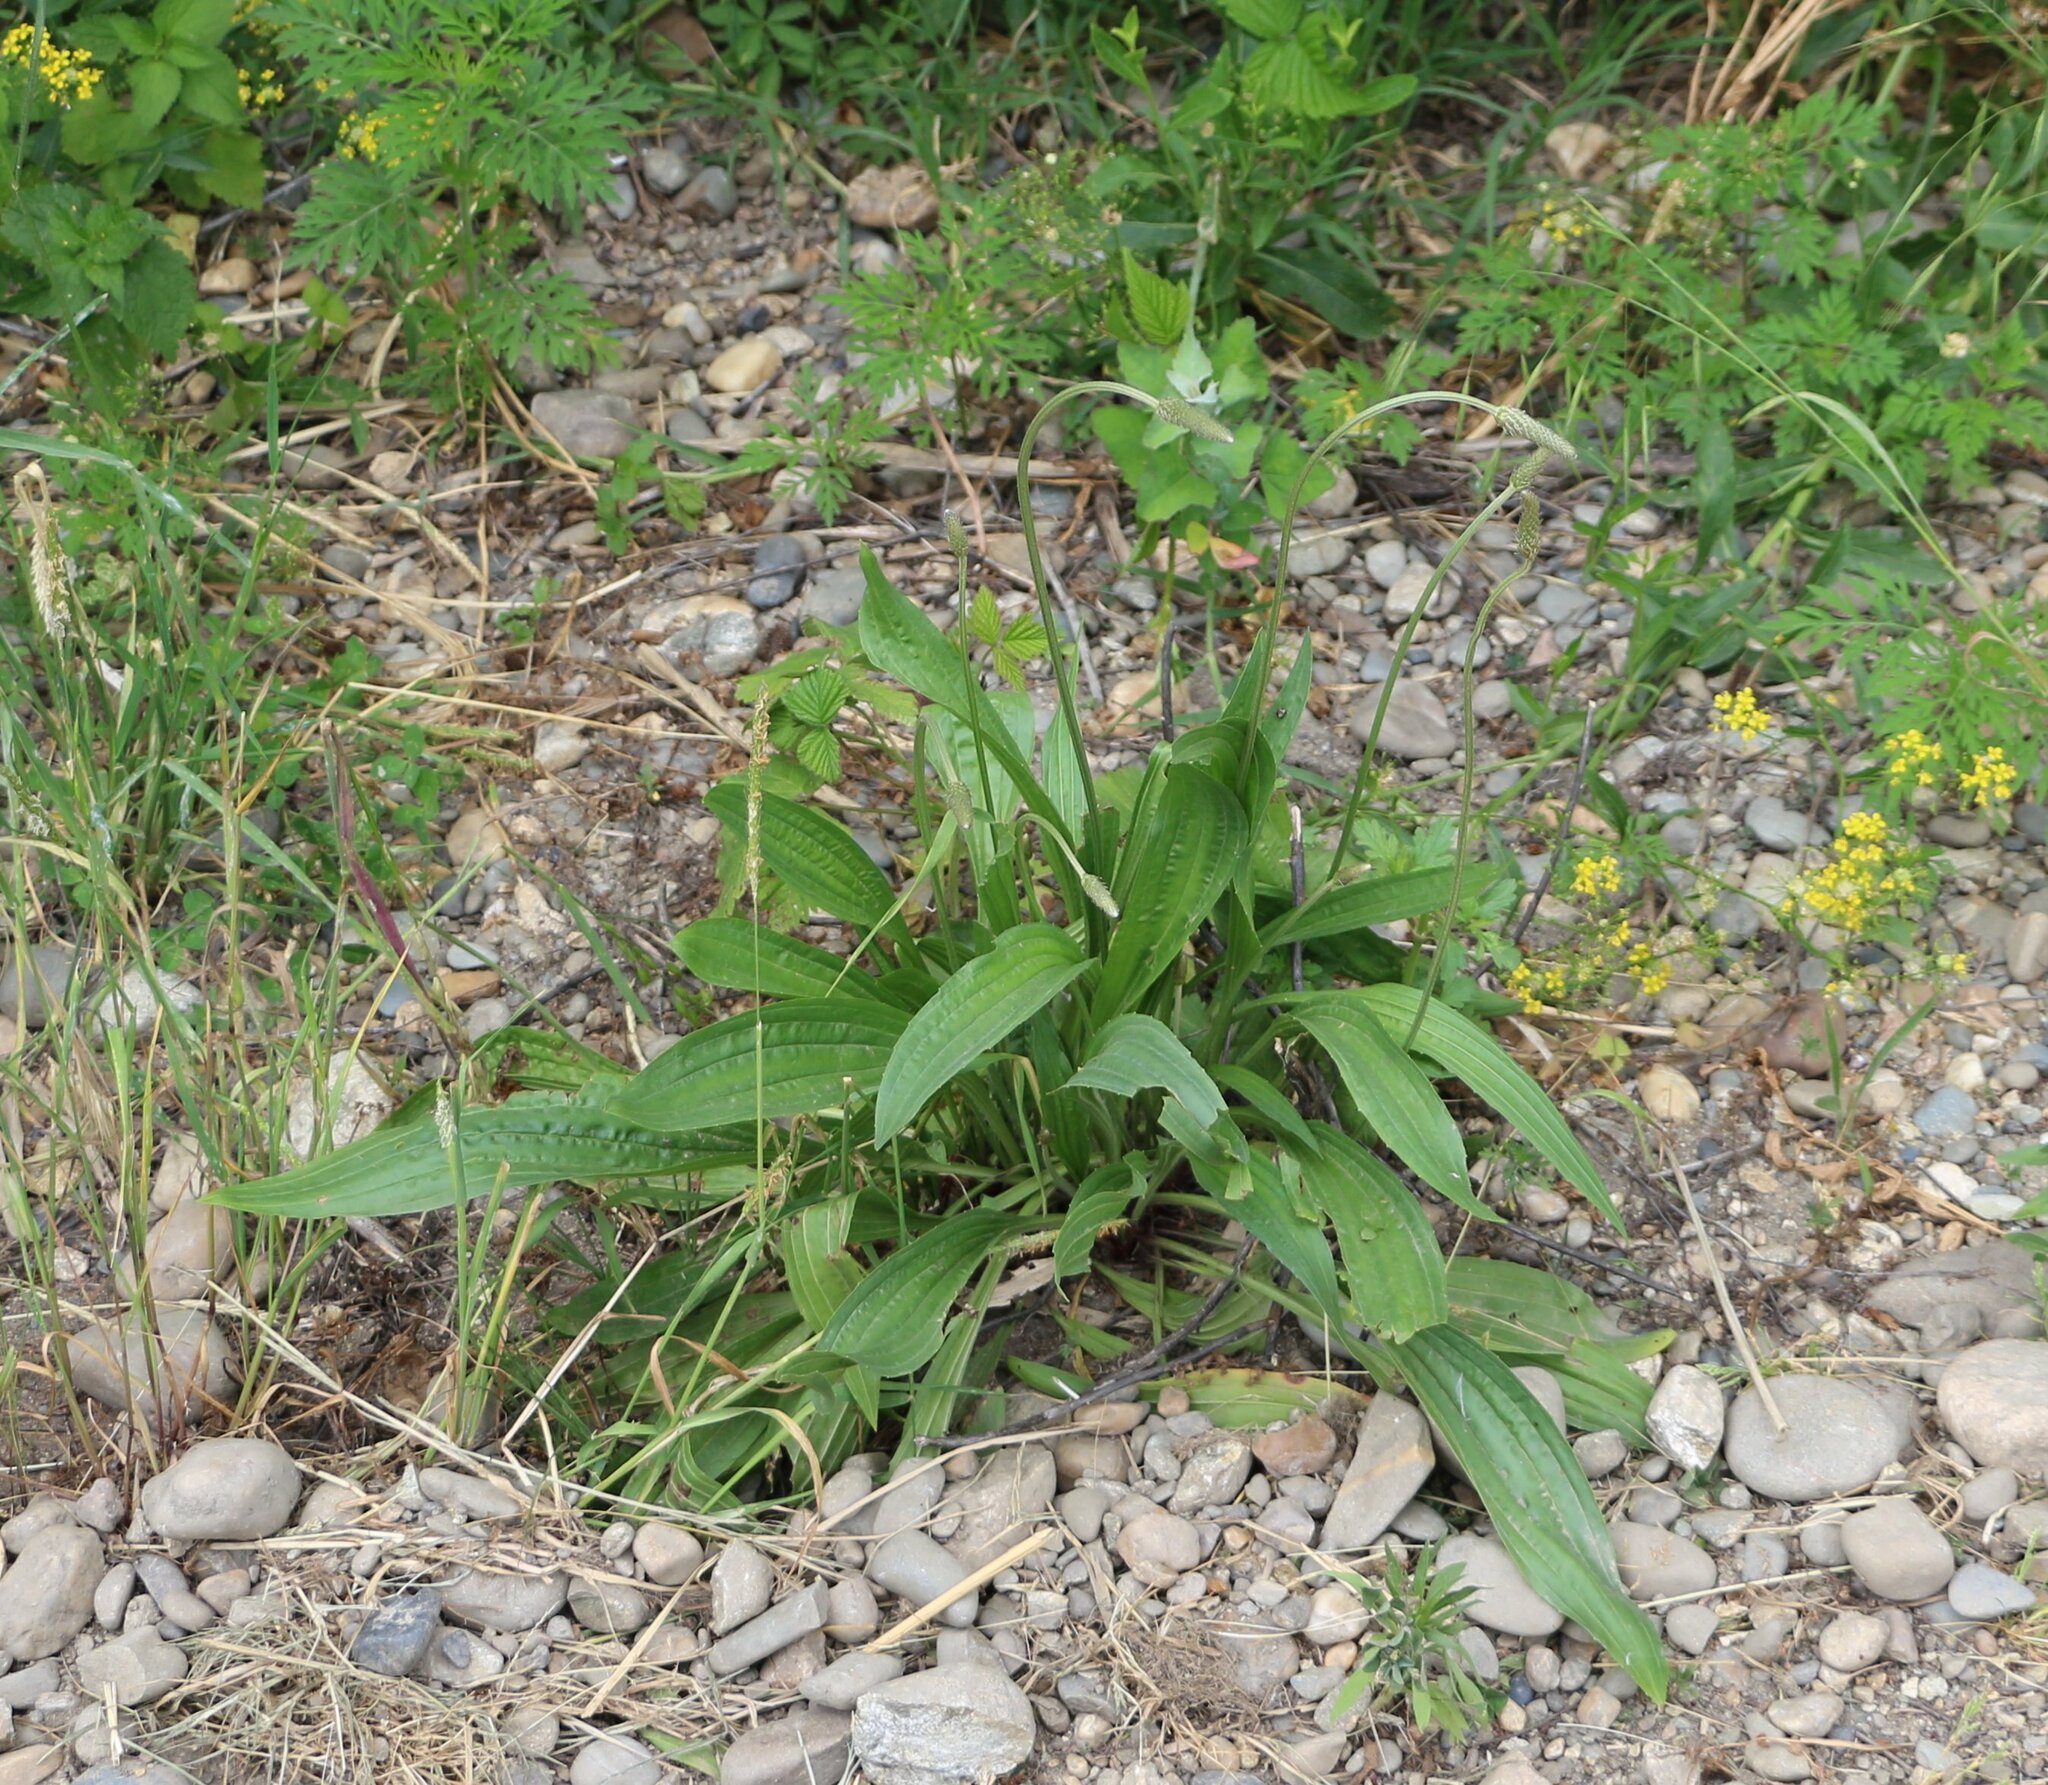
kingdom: Plantae
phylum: Tracheophyta
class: Magnoliopsida
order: Lamiales
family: Plantaginaceae
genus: Plantago
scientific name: Plantago lanceolata
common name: Ribwort plantain
